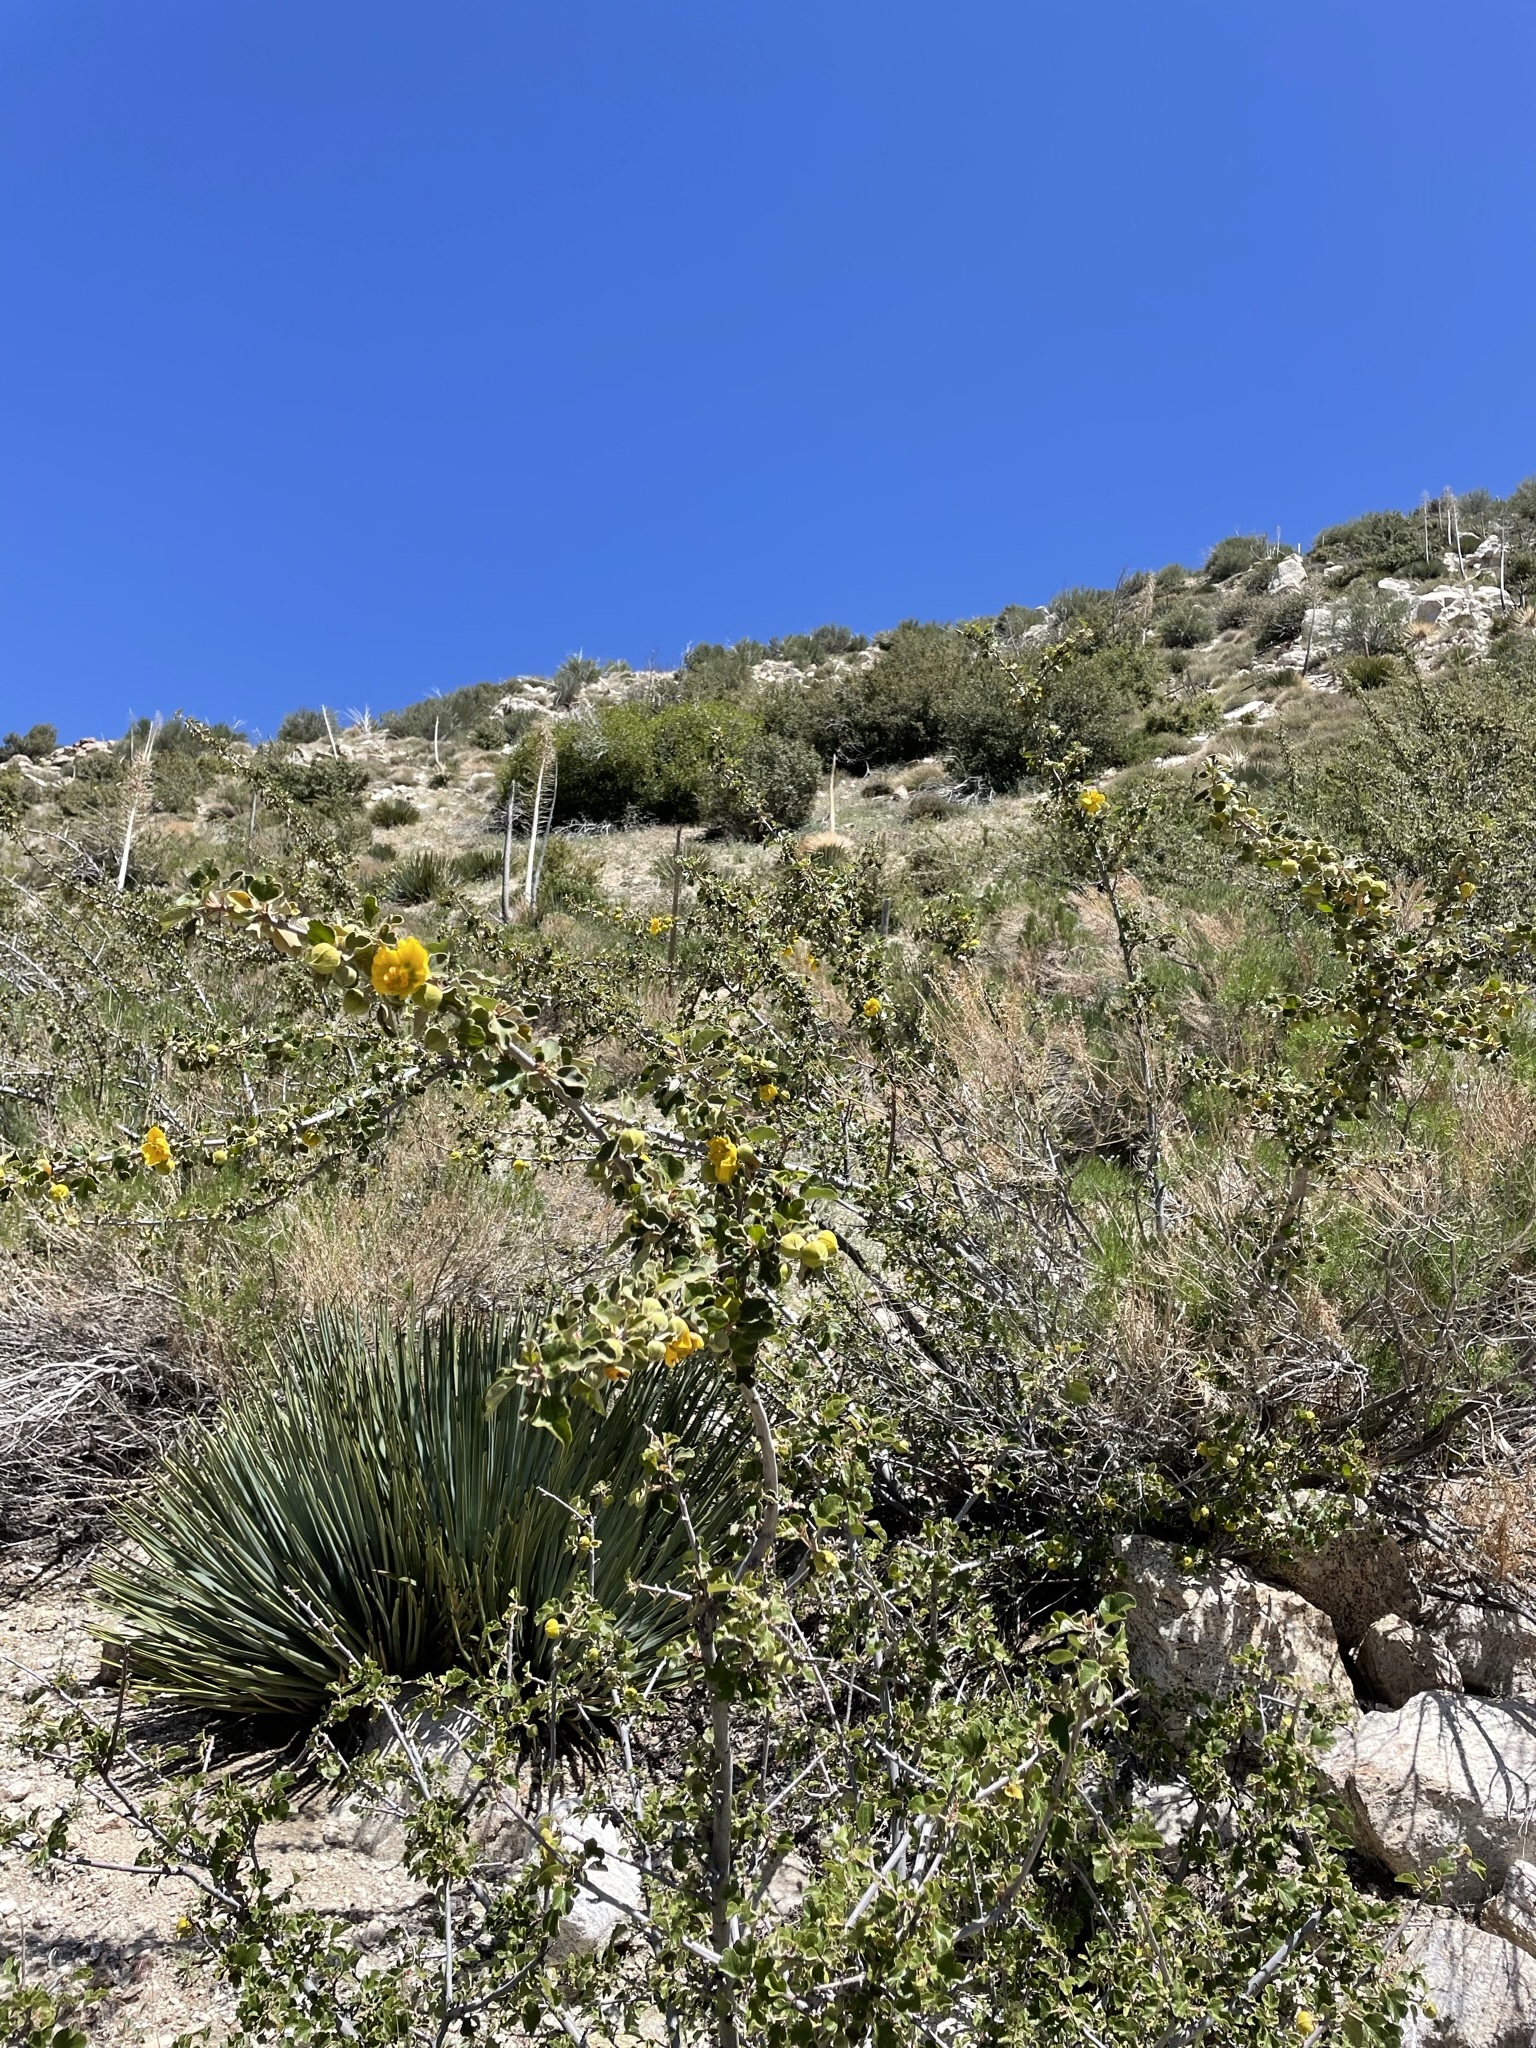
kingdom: Plantae
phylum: Tracheophyta
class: Magnoliopsida
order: Malvales
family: Malvaceae
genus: Fremontodendron
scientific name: Fremontodendron californicum
